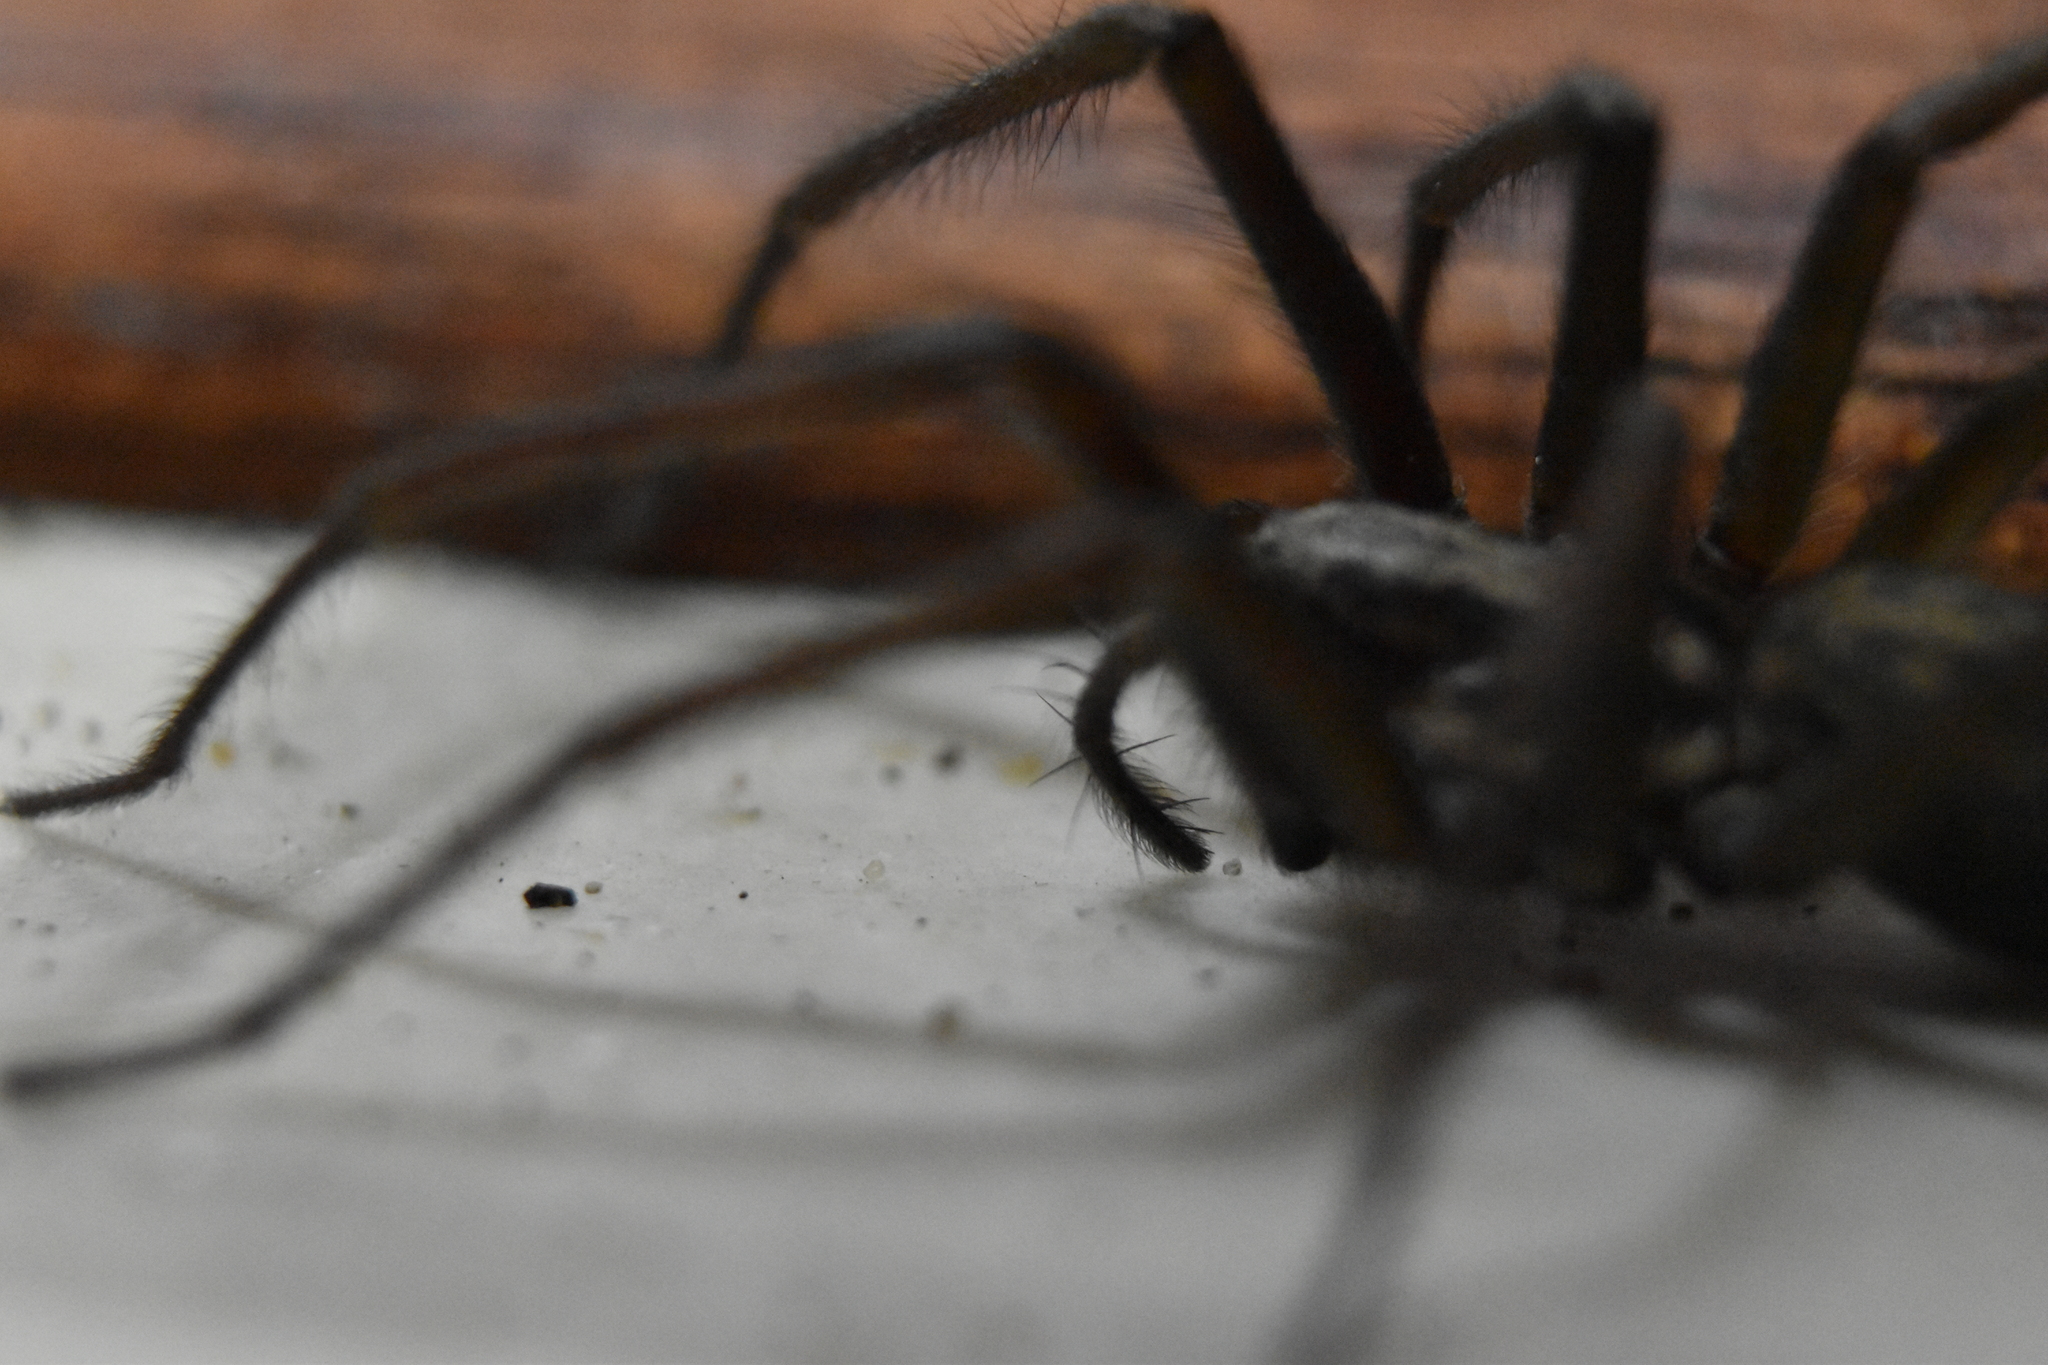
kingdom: Animalia
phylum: Arthropoda
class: Arachnida
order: Araneae
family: Agelenidae
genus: Eratigena
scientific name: Eratigena
